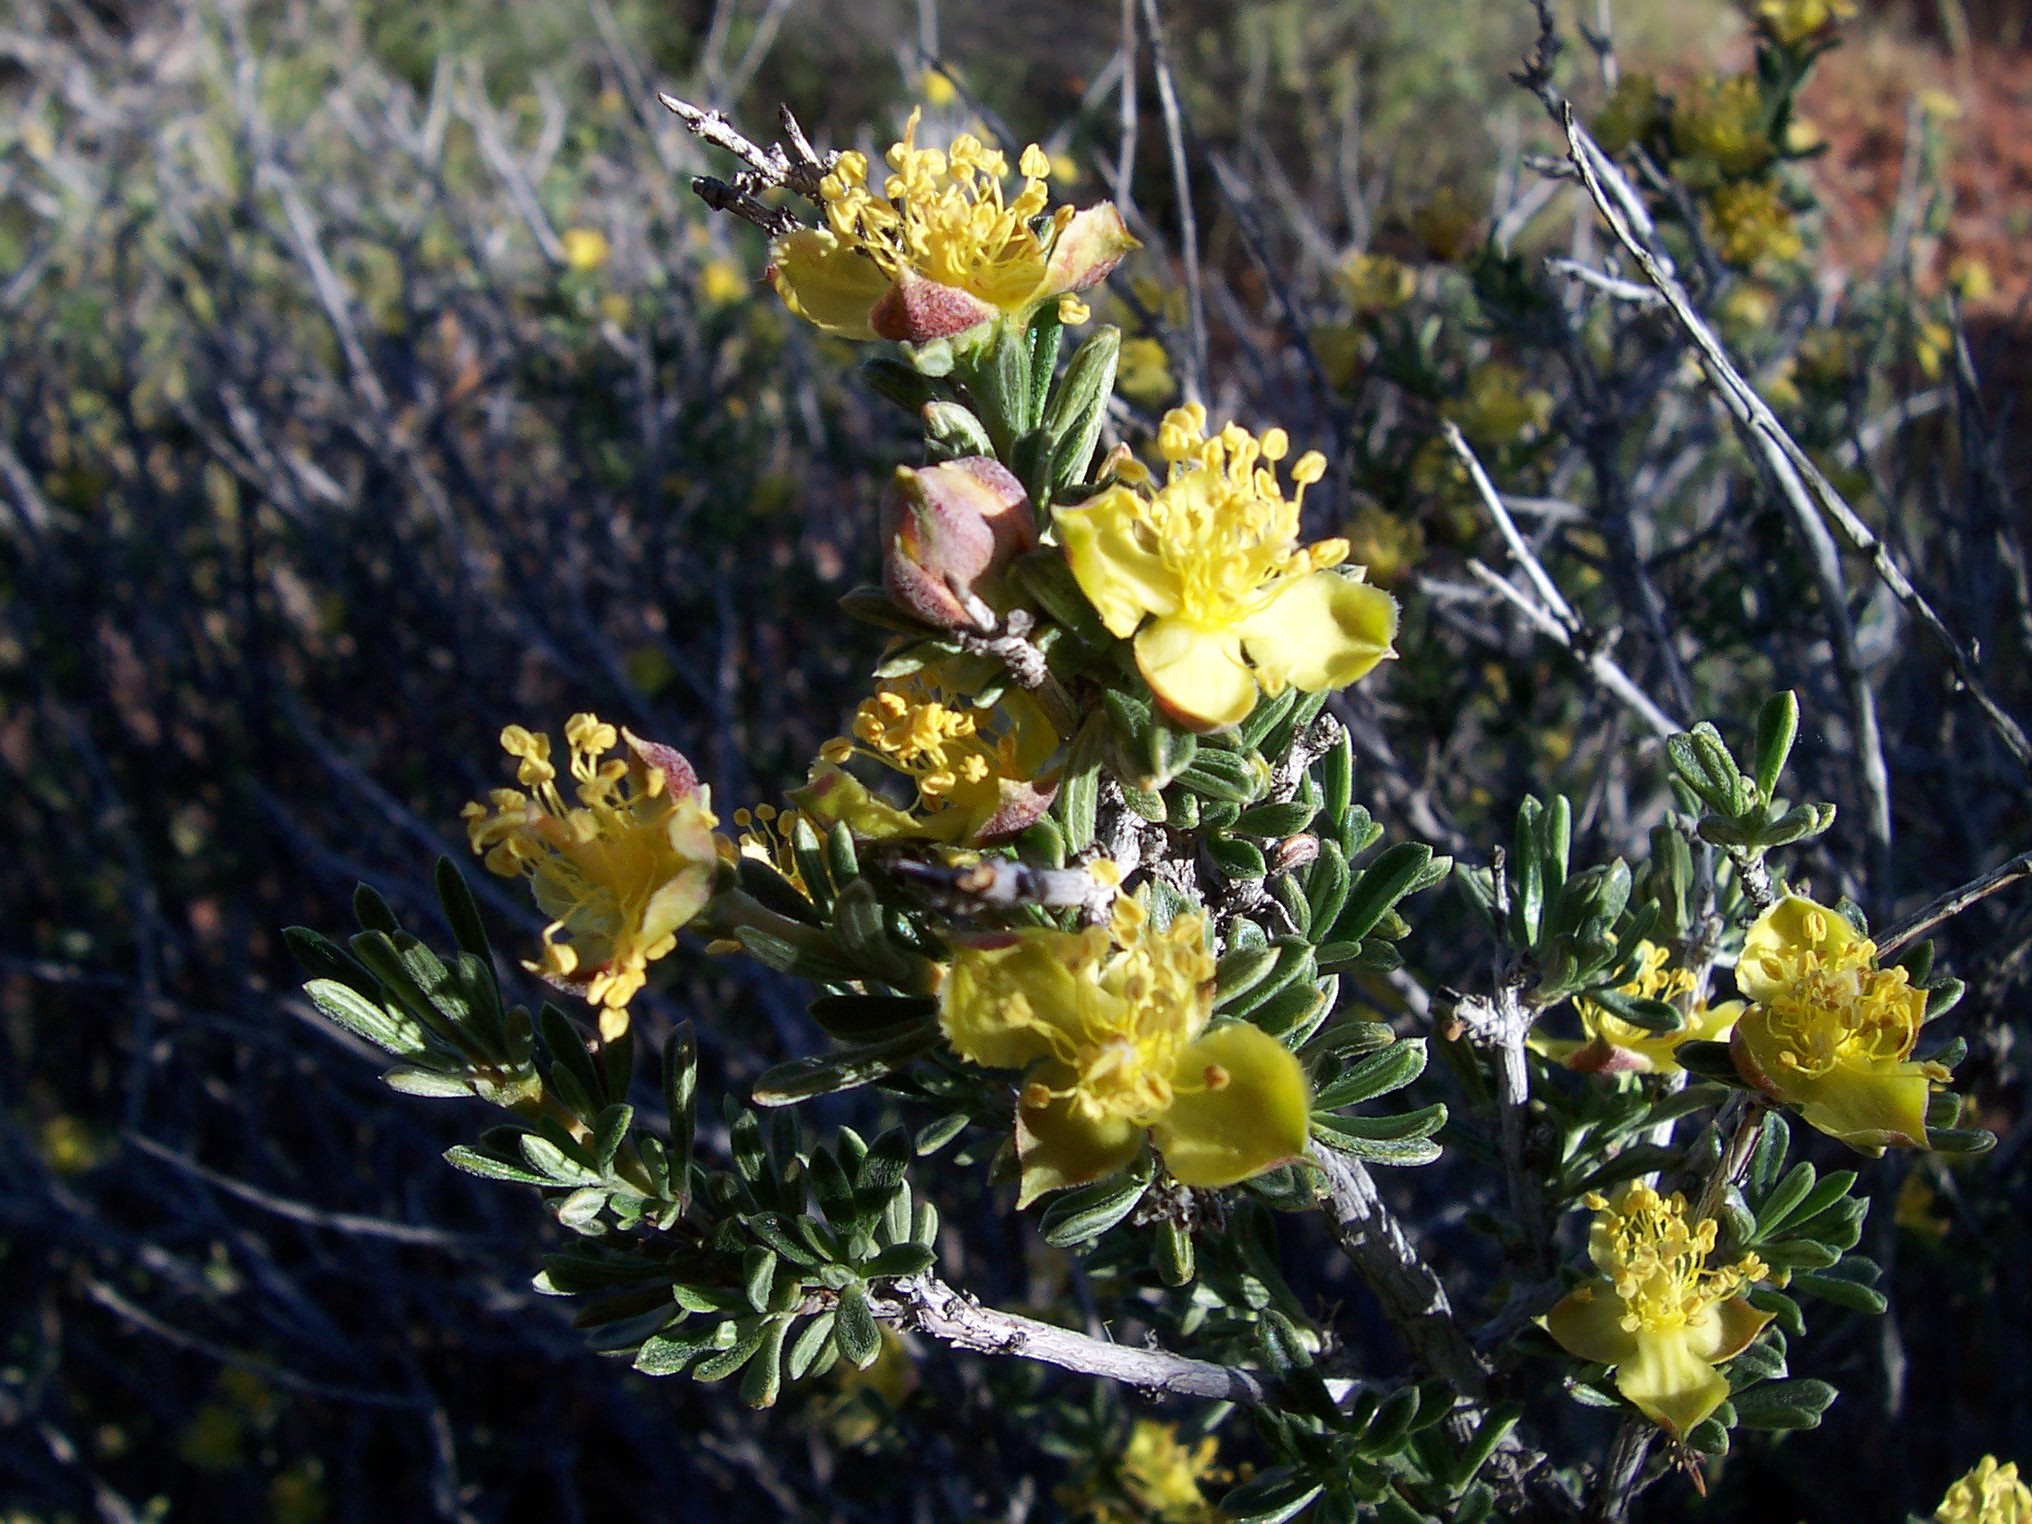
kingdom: Plantae
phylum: Tracheophyta
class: Magnoliopsida
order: Rosales
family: Rosaceae
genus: Coleogyne
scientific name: Coleogyne ramosissima
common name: Blackbrush
